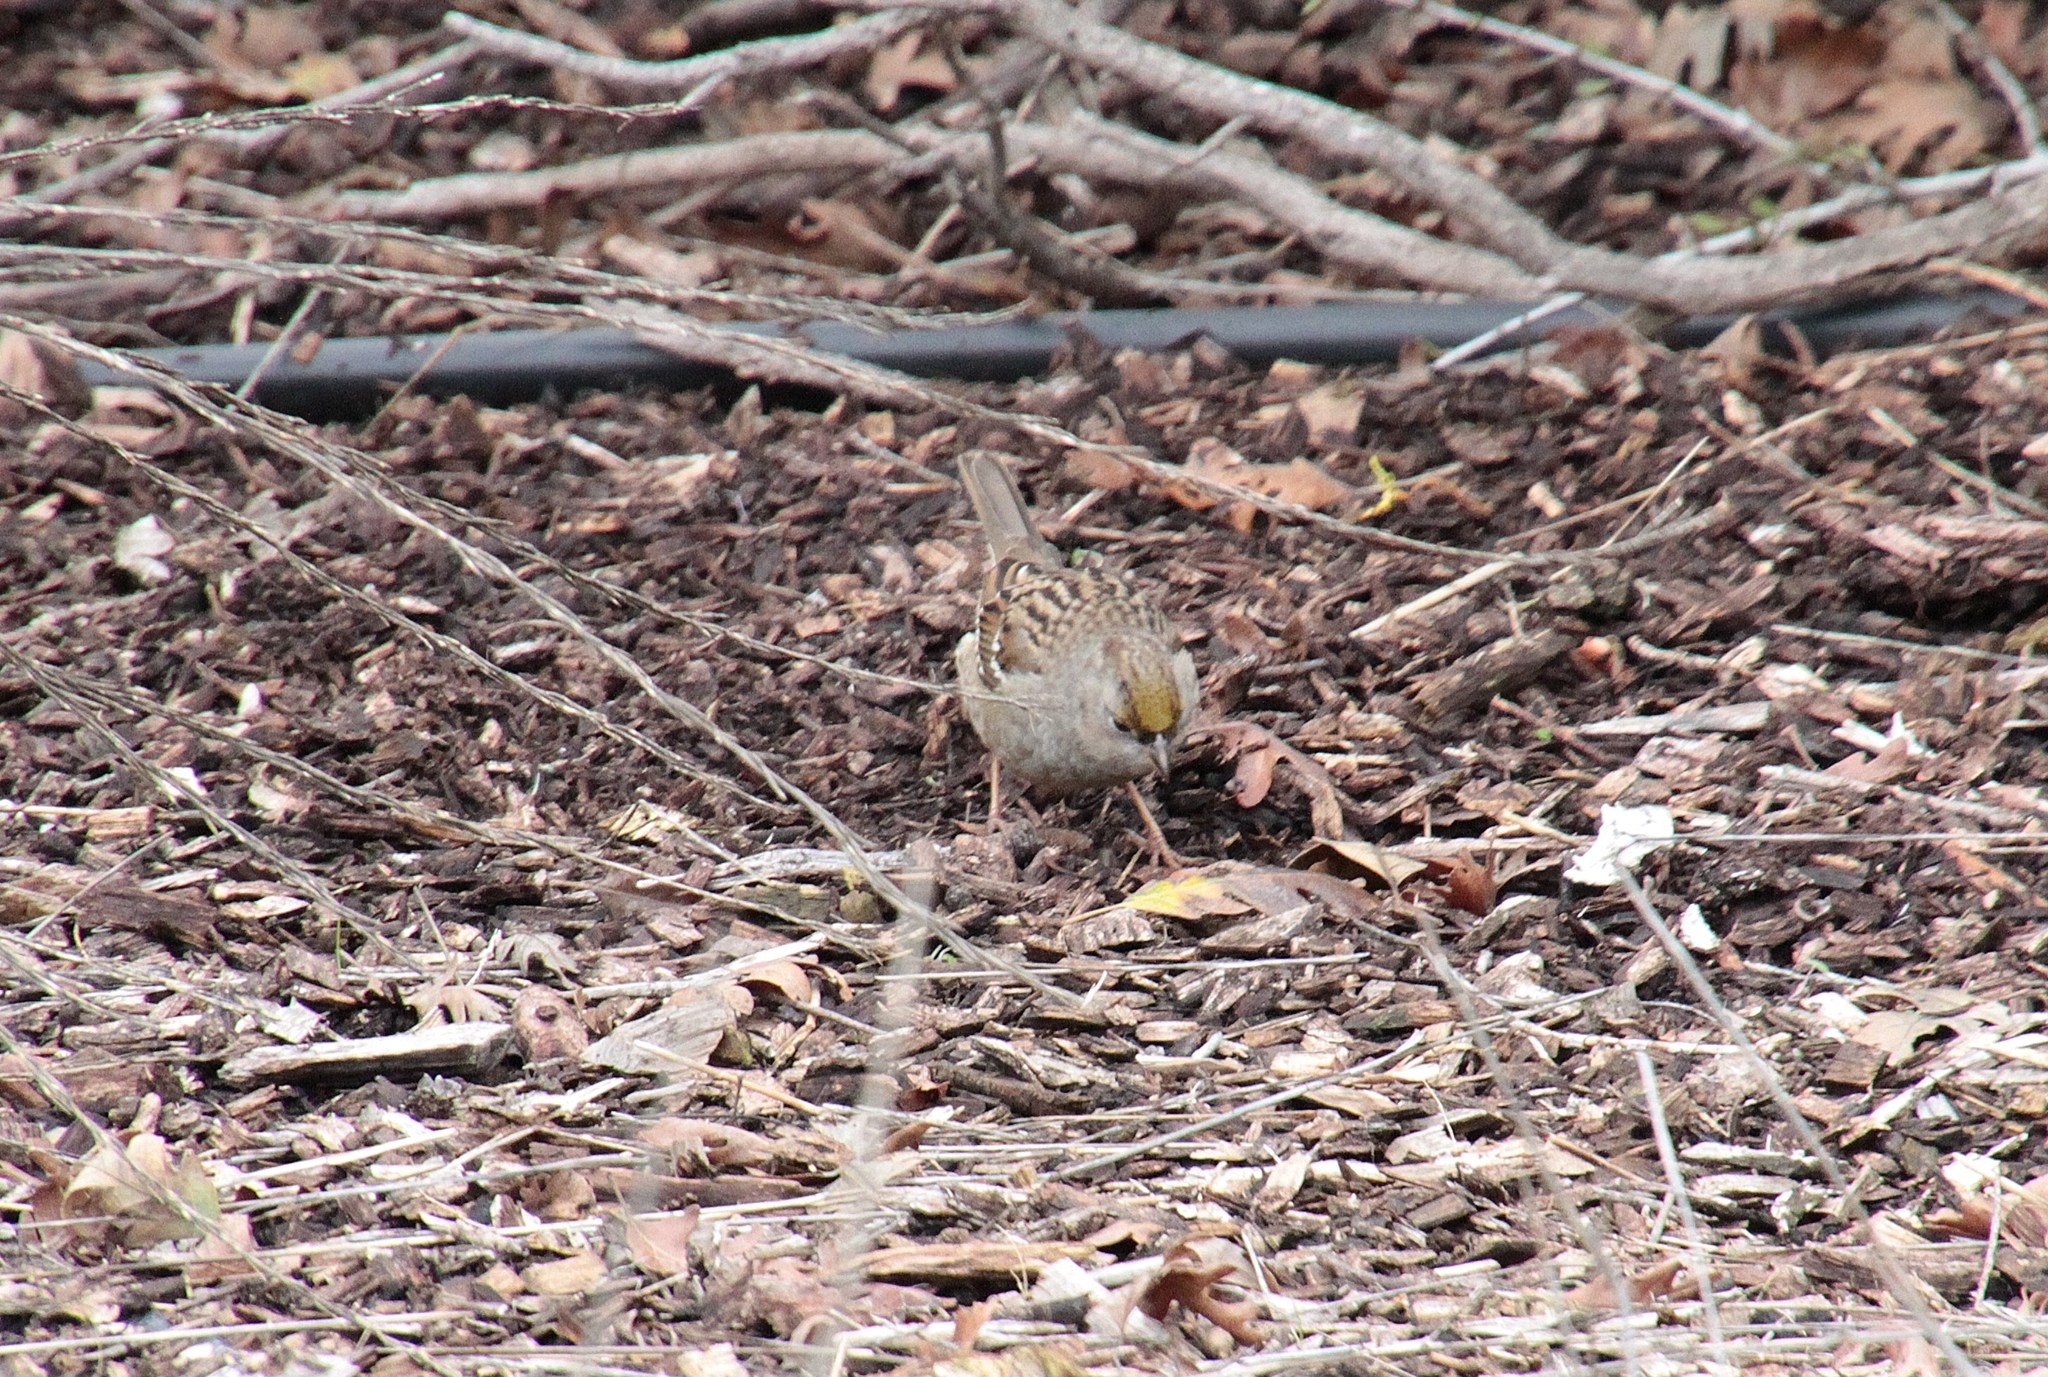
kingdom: Animalia
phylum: Chordata
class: Aves
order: Passeriformes
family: Passerellidae
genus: Zonotrichia
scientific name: Zonotrichia atricapilla
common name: Golden-crowned sparrow
